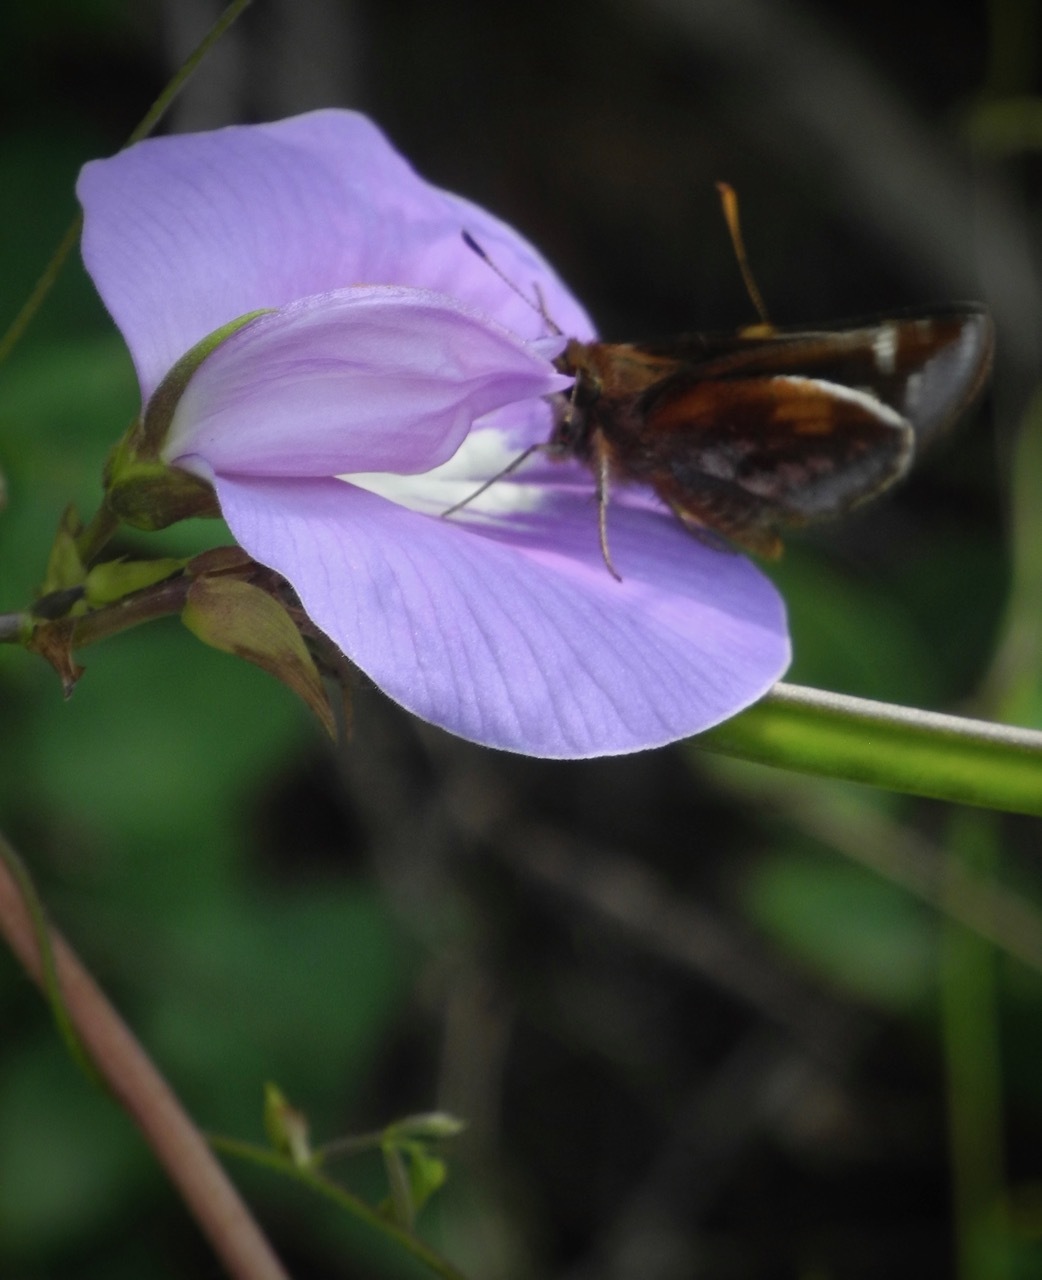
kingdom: Animalia
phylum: Arthropoda
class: Insecta
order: Lepidoptera
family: Hesperiidae
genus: Lon
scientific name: Lon zabulon
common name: Zabulon skipper
